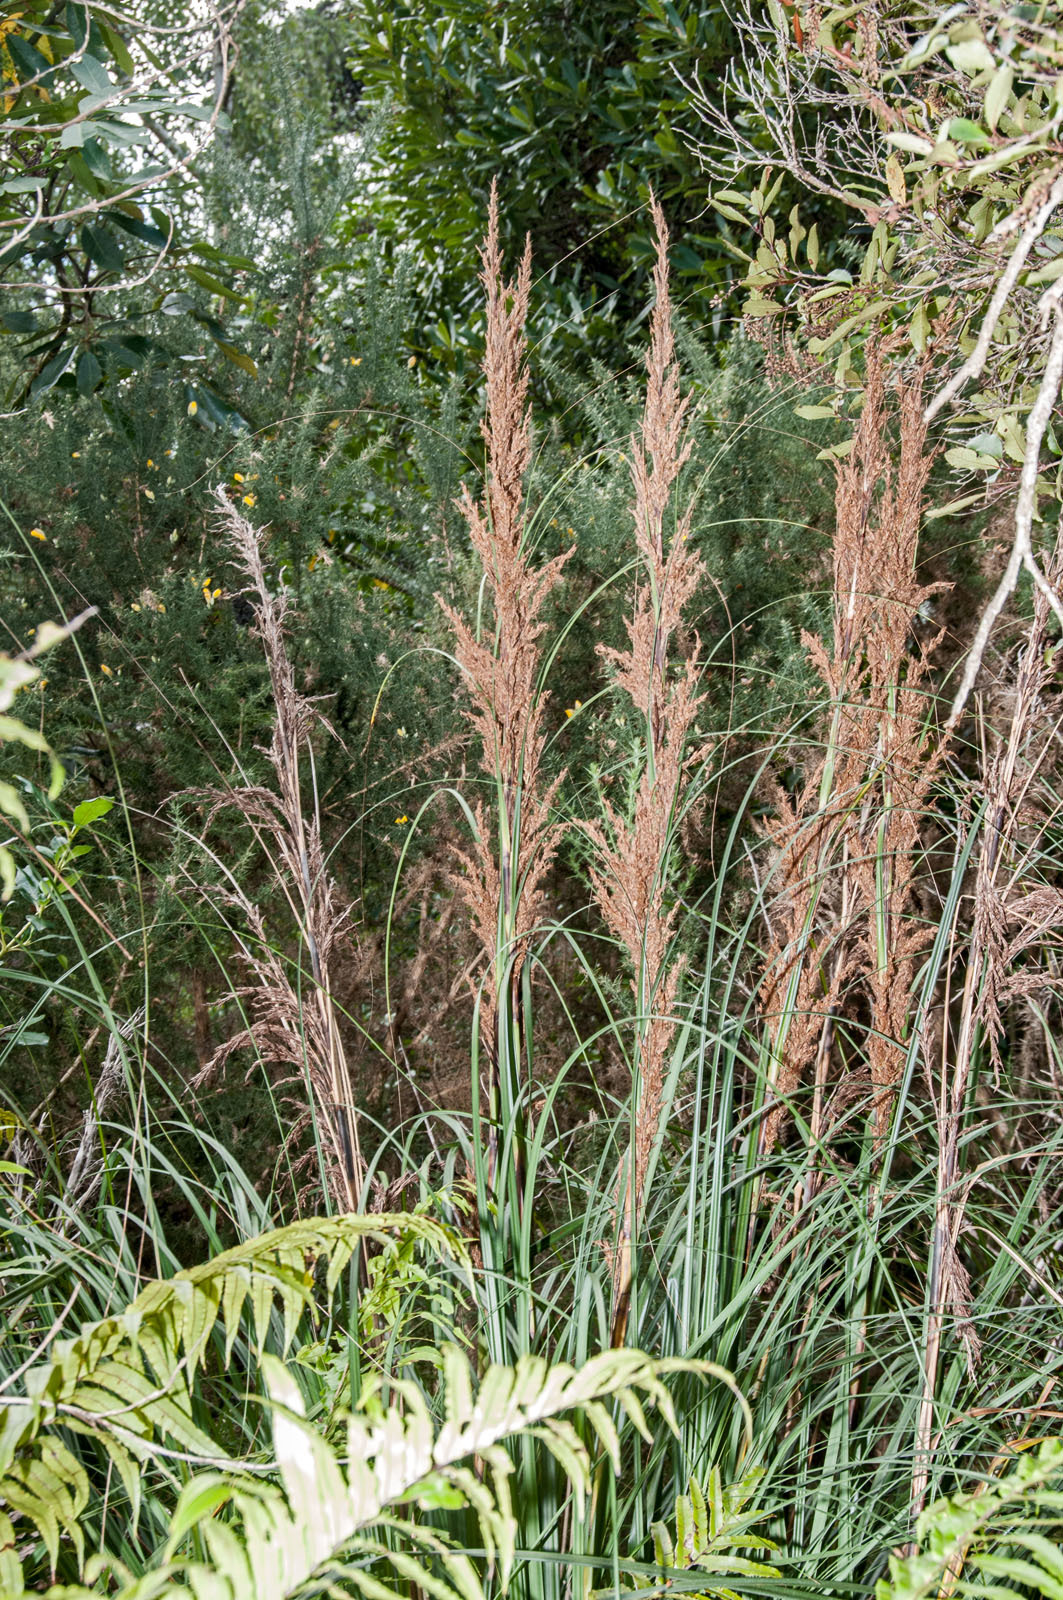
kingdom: Plantae
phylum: Tracheophyta
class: Liliopsida
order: Poales
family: Cyperaceae
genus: Gahnia
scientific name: Gahnia rigida
